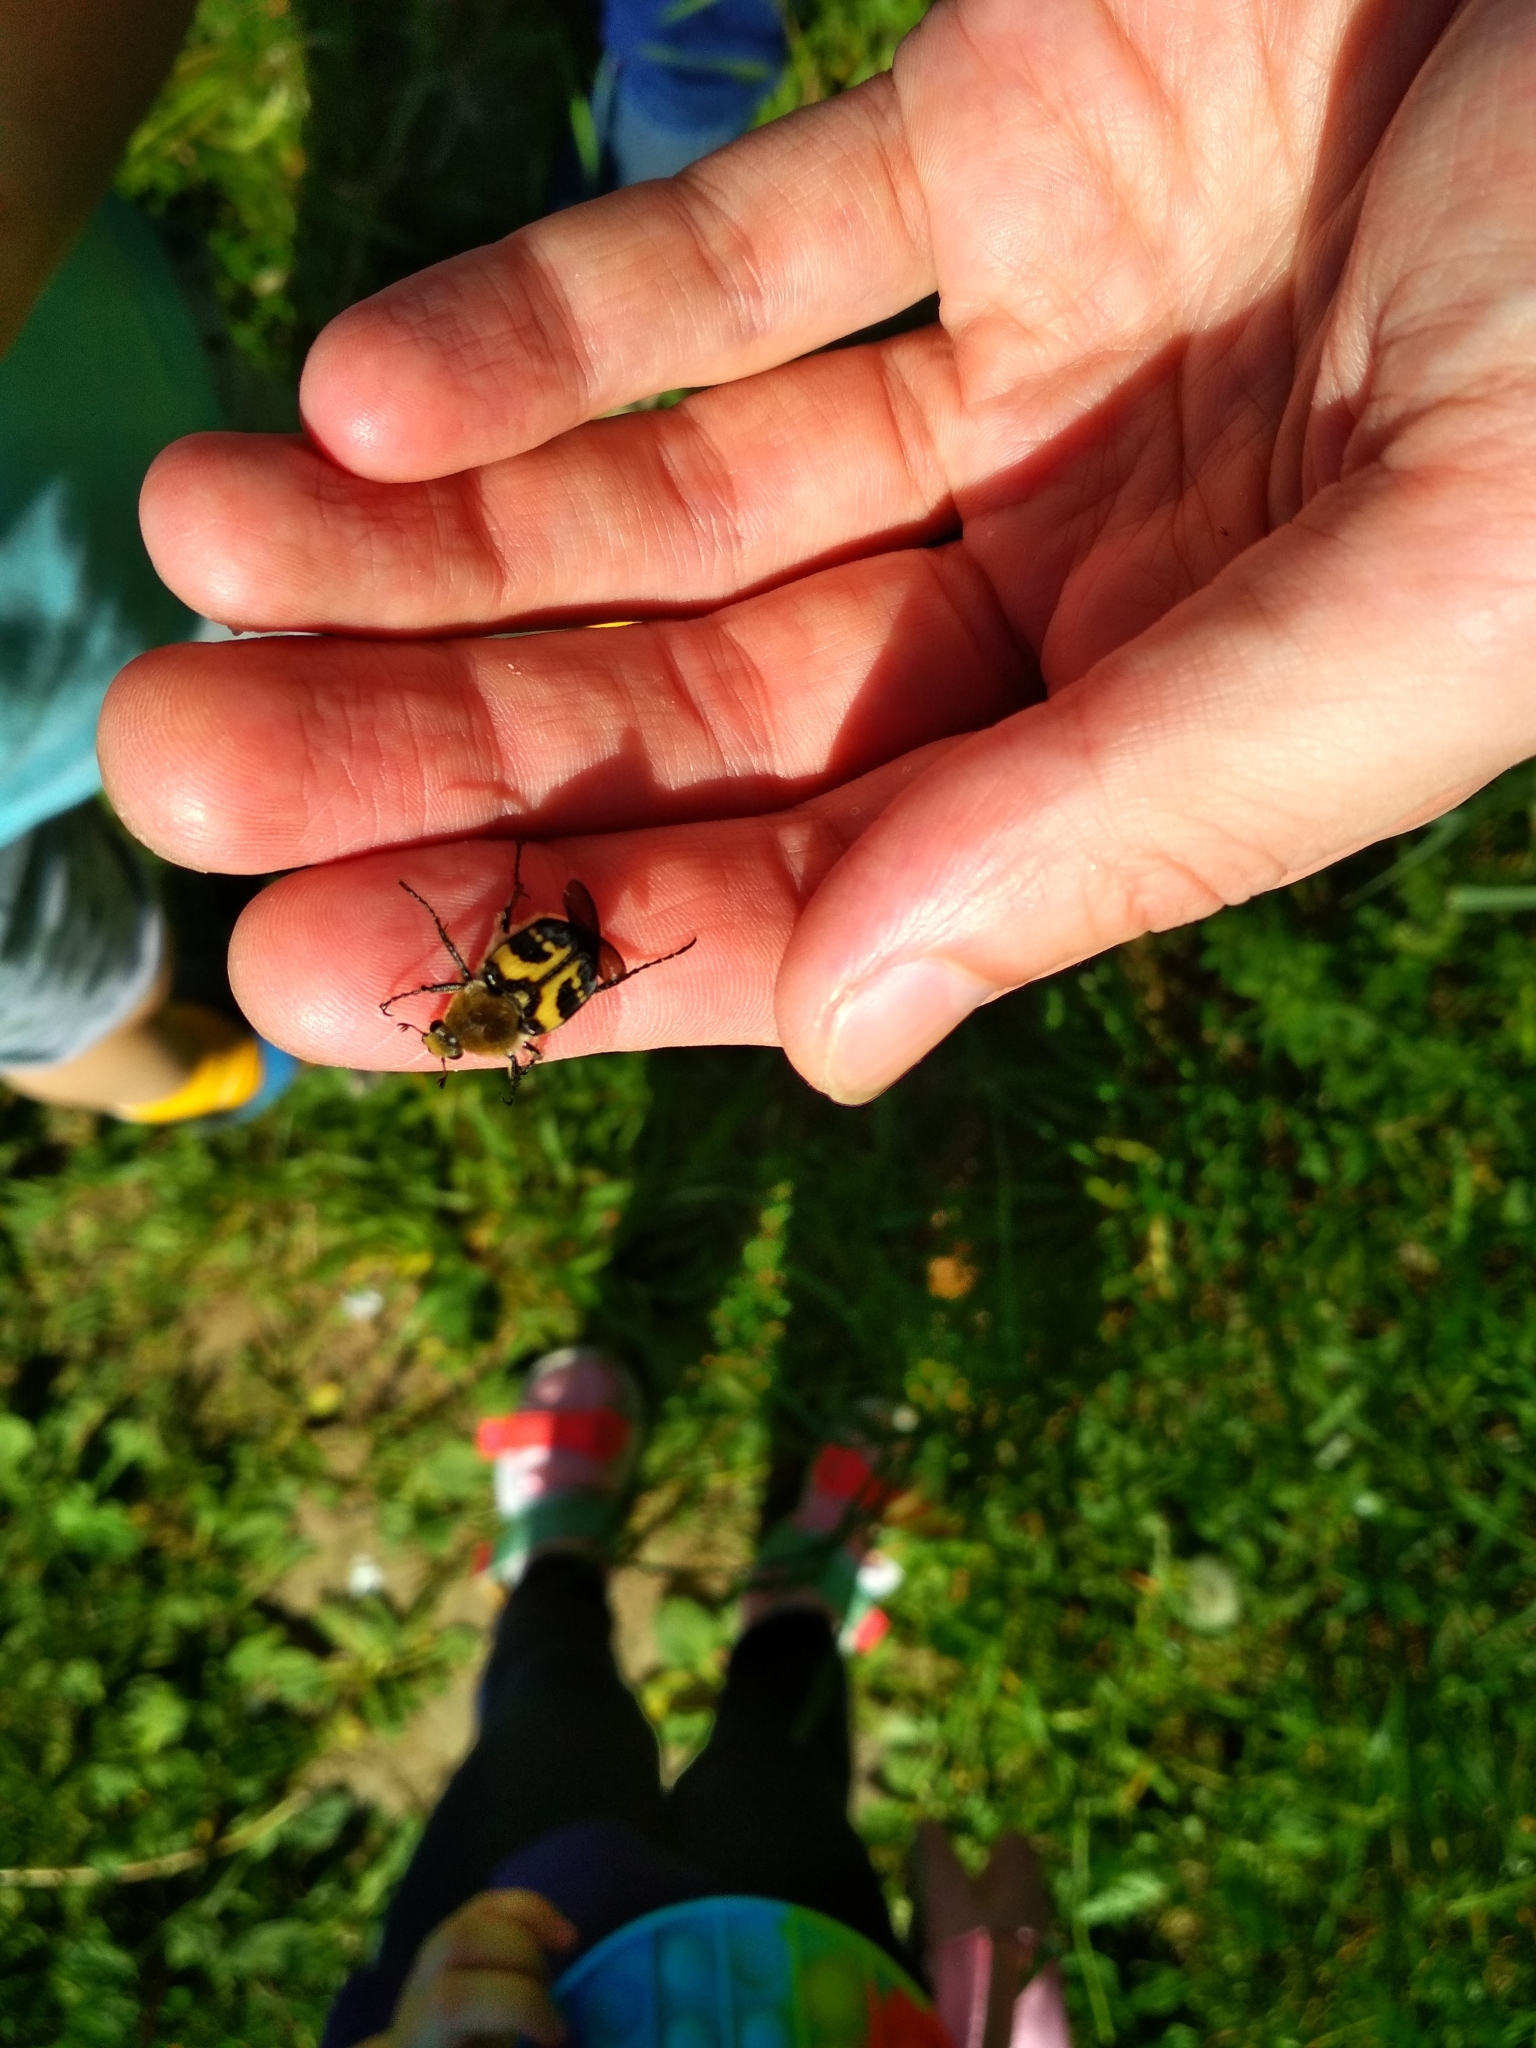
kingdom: Animalia
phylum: Arthropoda
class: Insecta
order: Coleoptera
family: Scarabaeidae
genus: Trichius
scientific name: Trichius fasciatus
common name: Bee beetle
